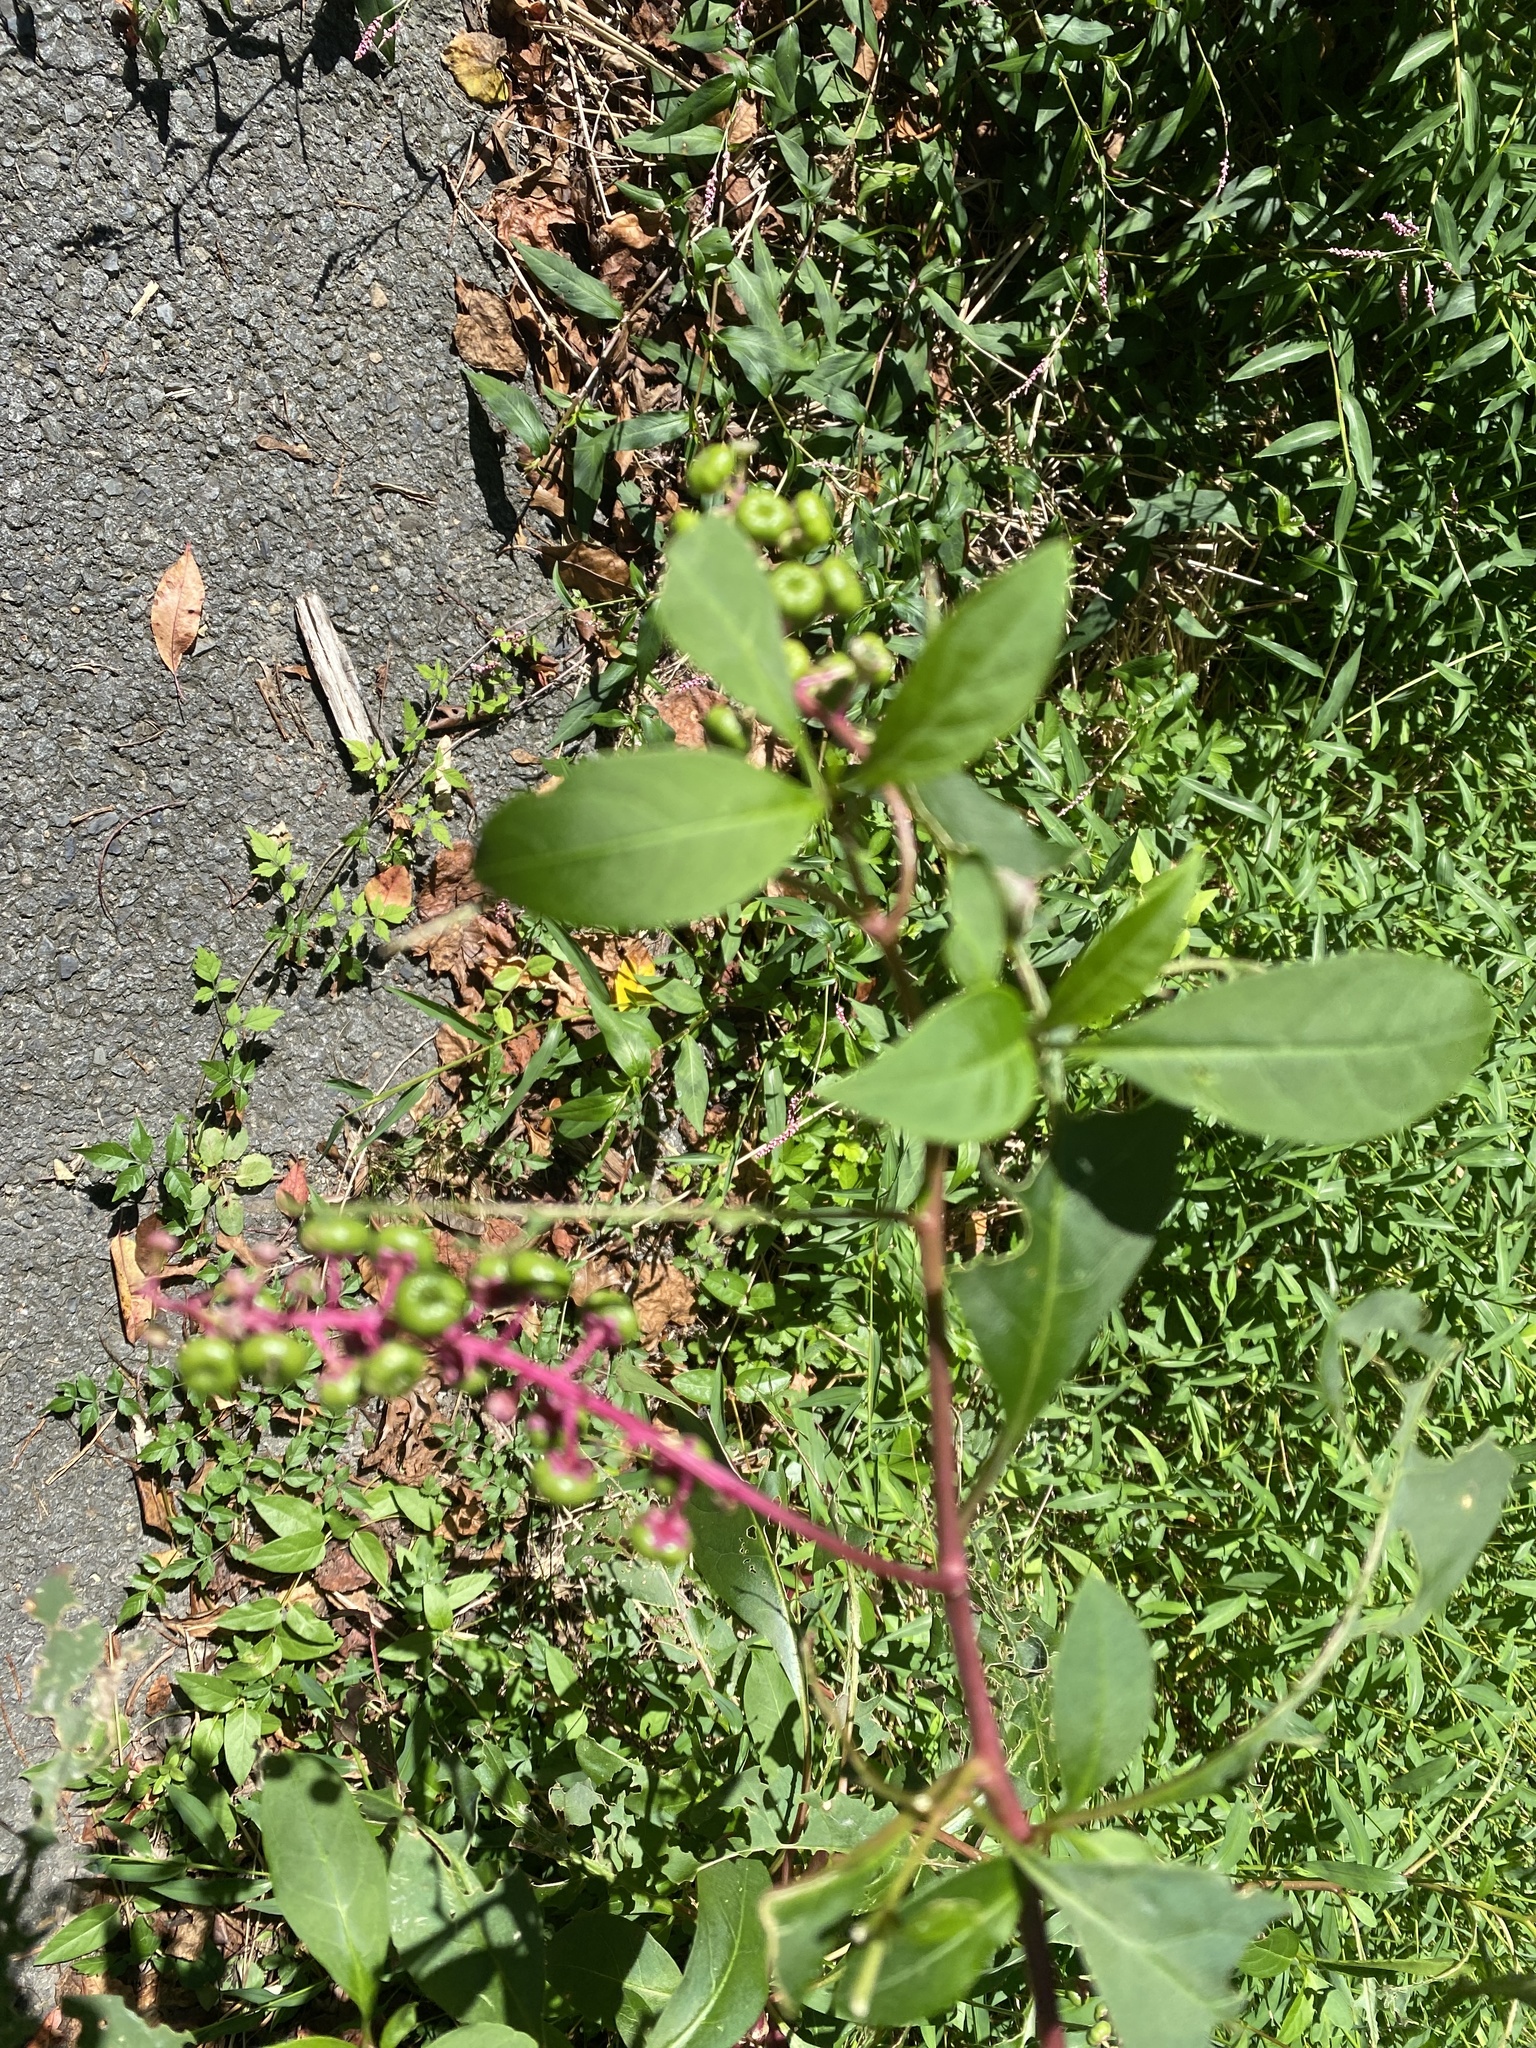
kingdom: Plantae
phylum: Tracheophyta
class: Magnoliopsida
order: Caryophyllales
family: Phytolaccaceae
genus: Phytolacca
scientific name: Phytolacca americana
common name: American pokeweed
